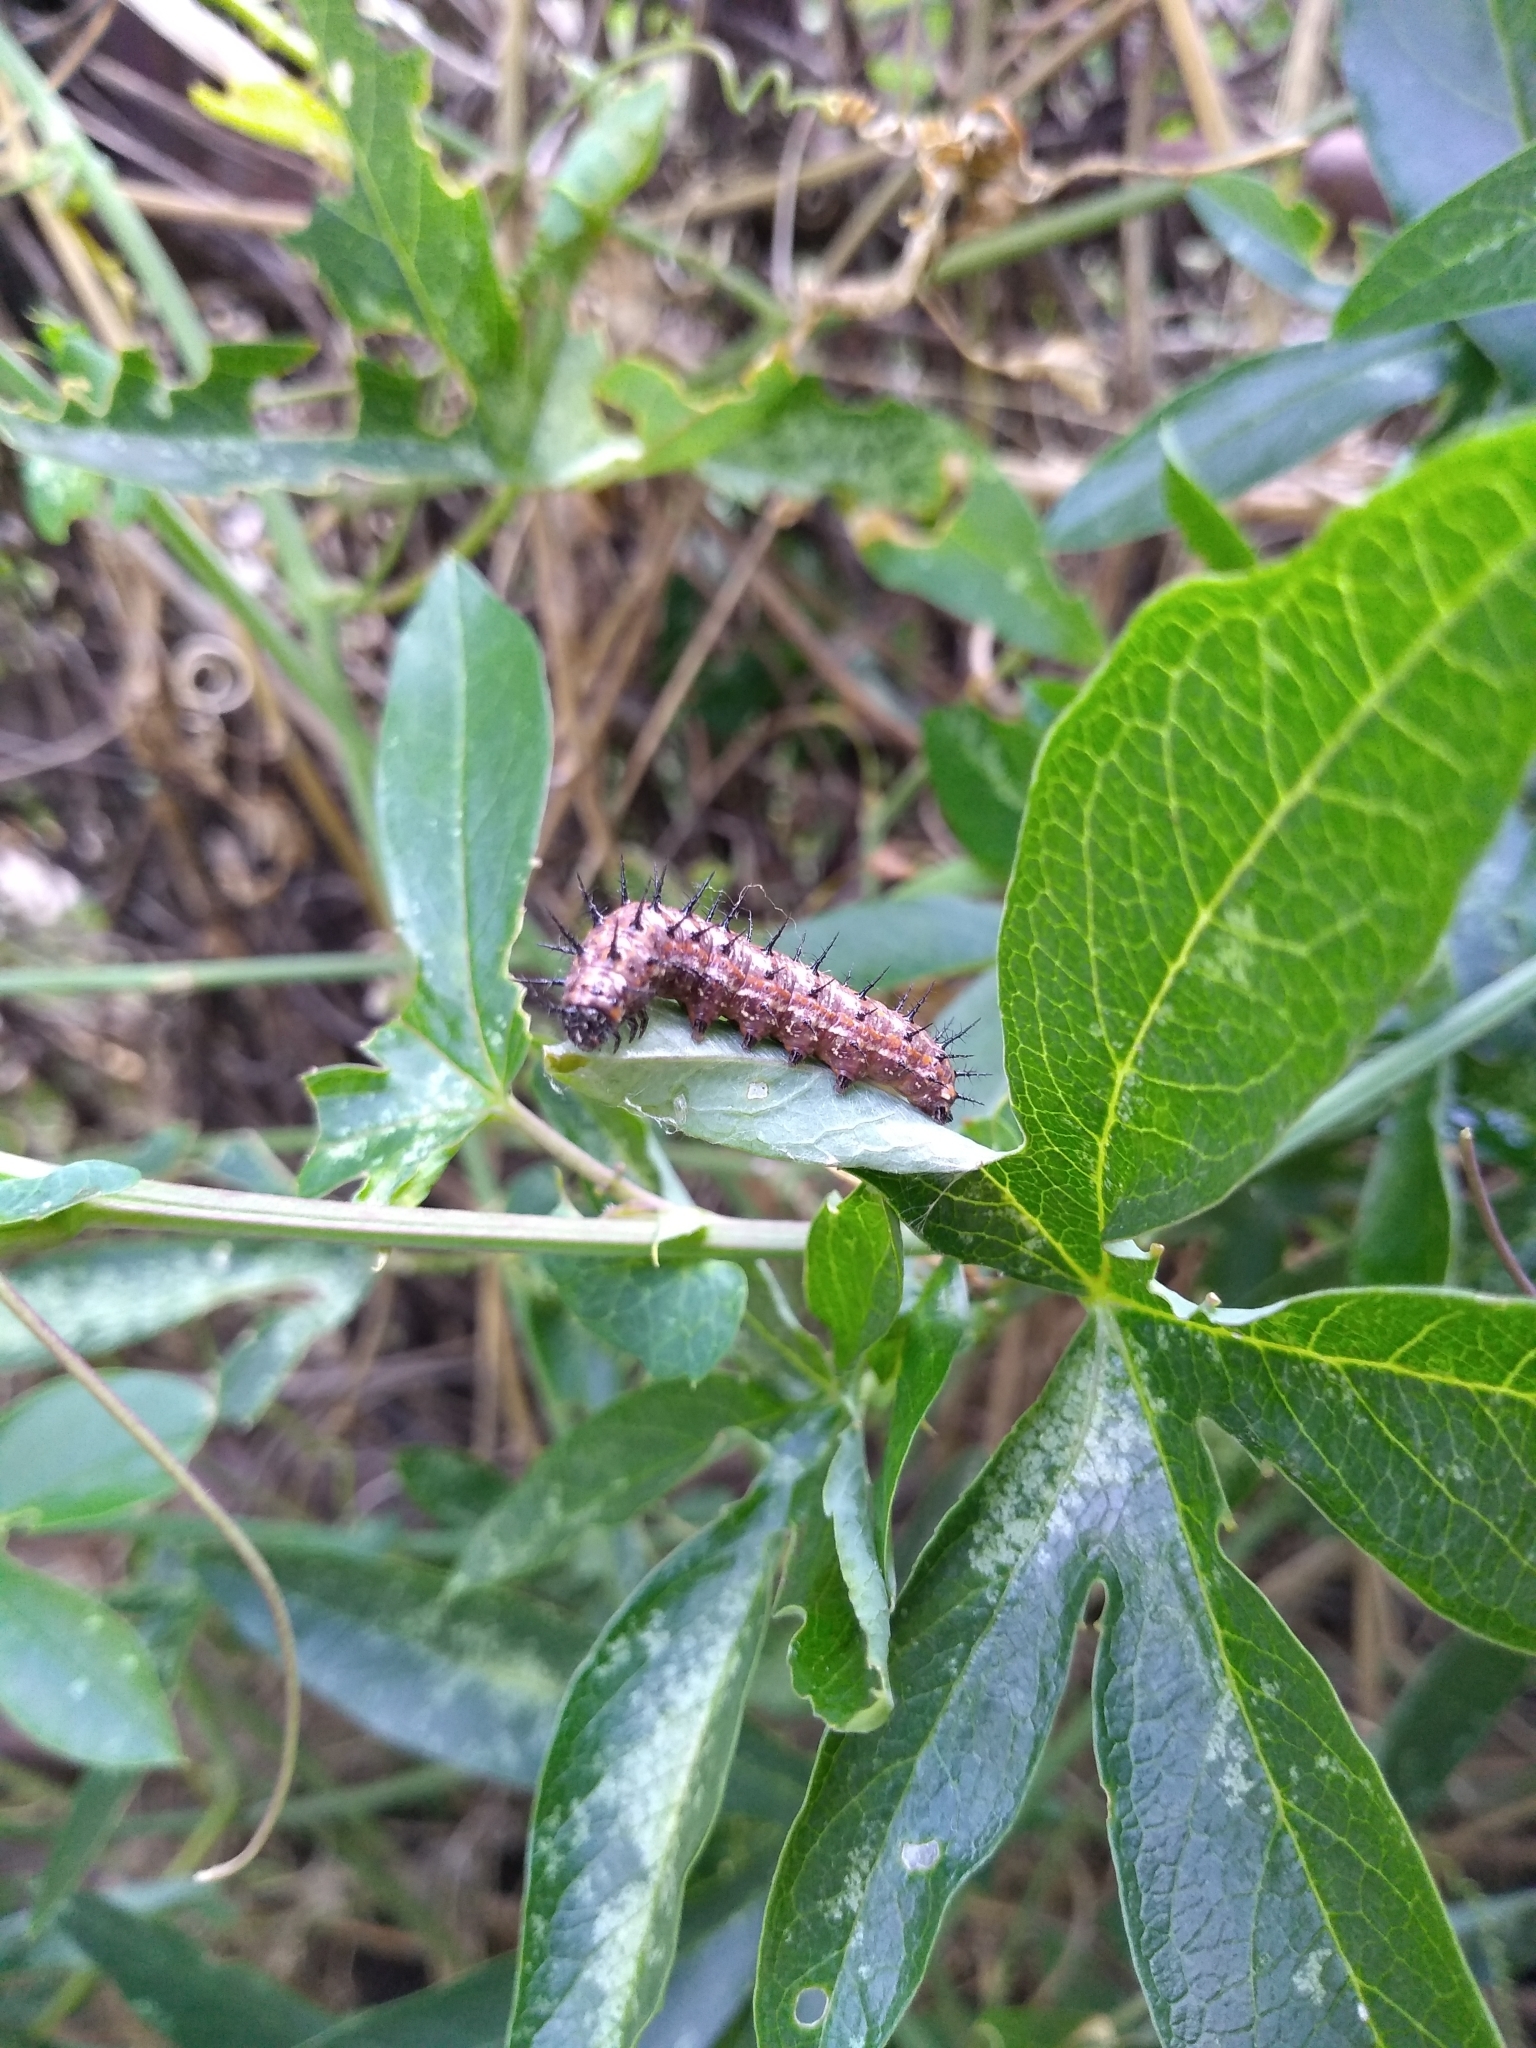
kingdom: Animalia
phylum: Arthropoda
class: Insecta
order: Lepidoptera
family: Nymphalidae
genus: Dione
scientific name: Dione vanillae
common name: Gulf fritillary
